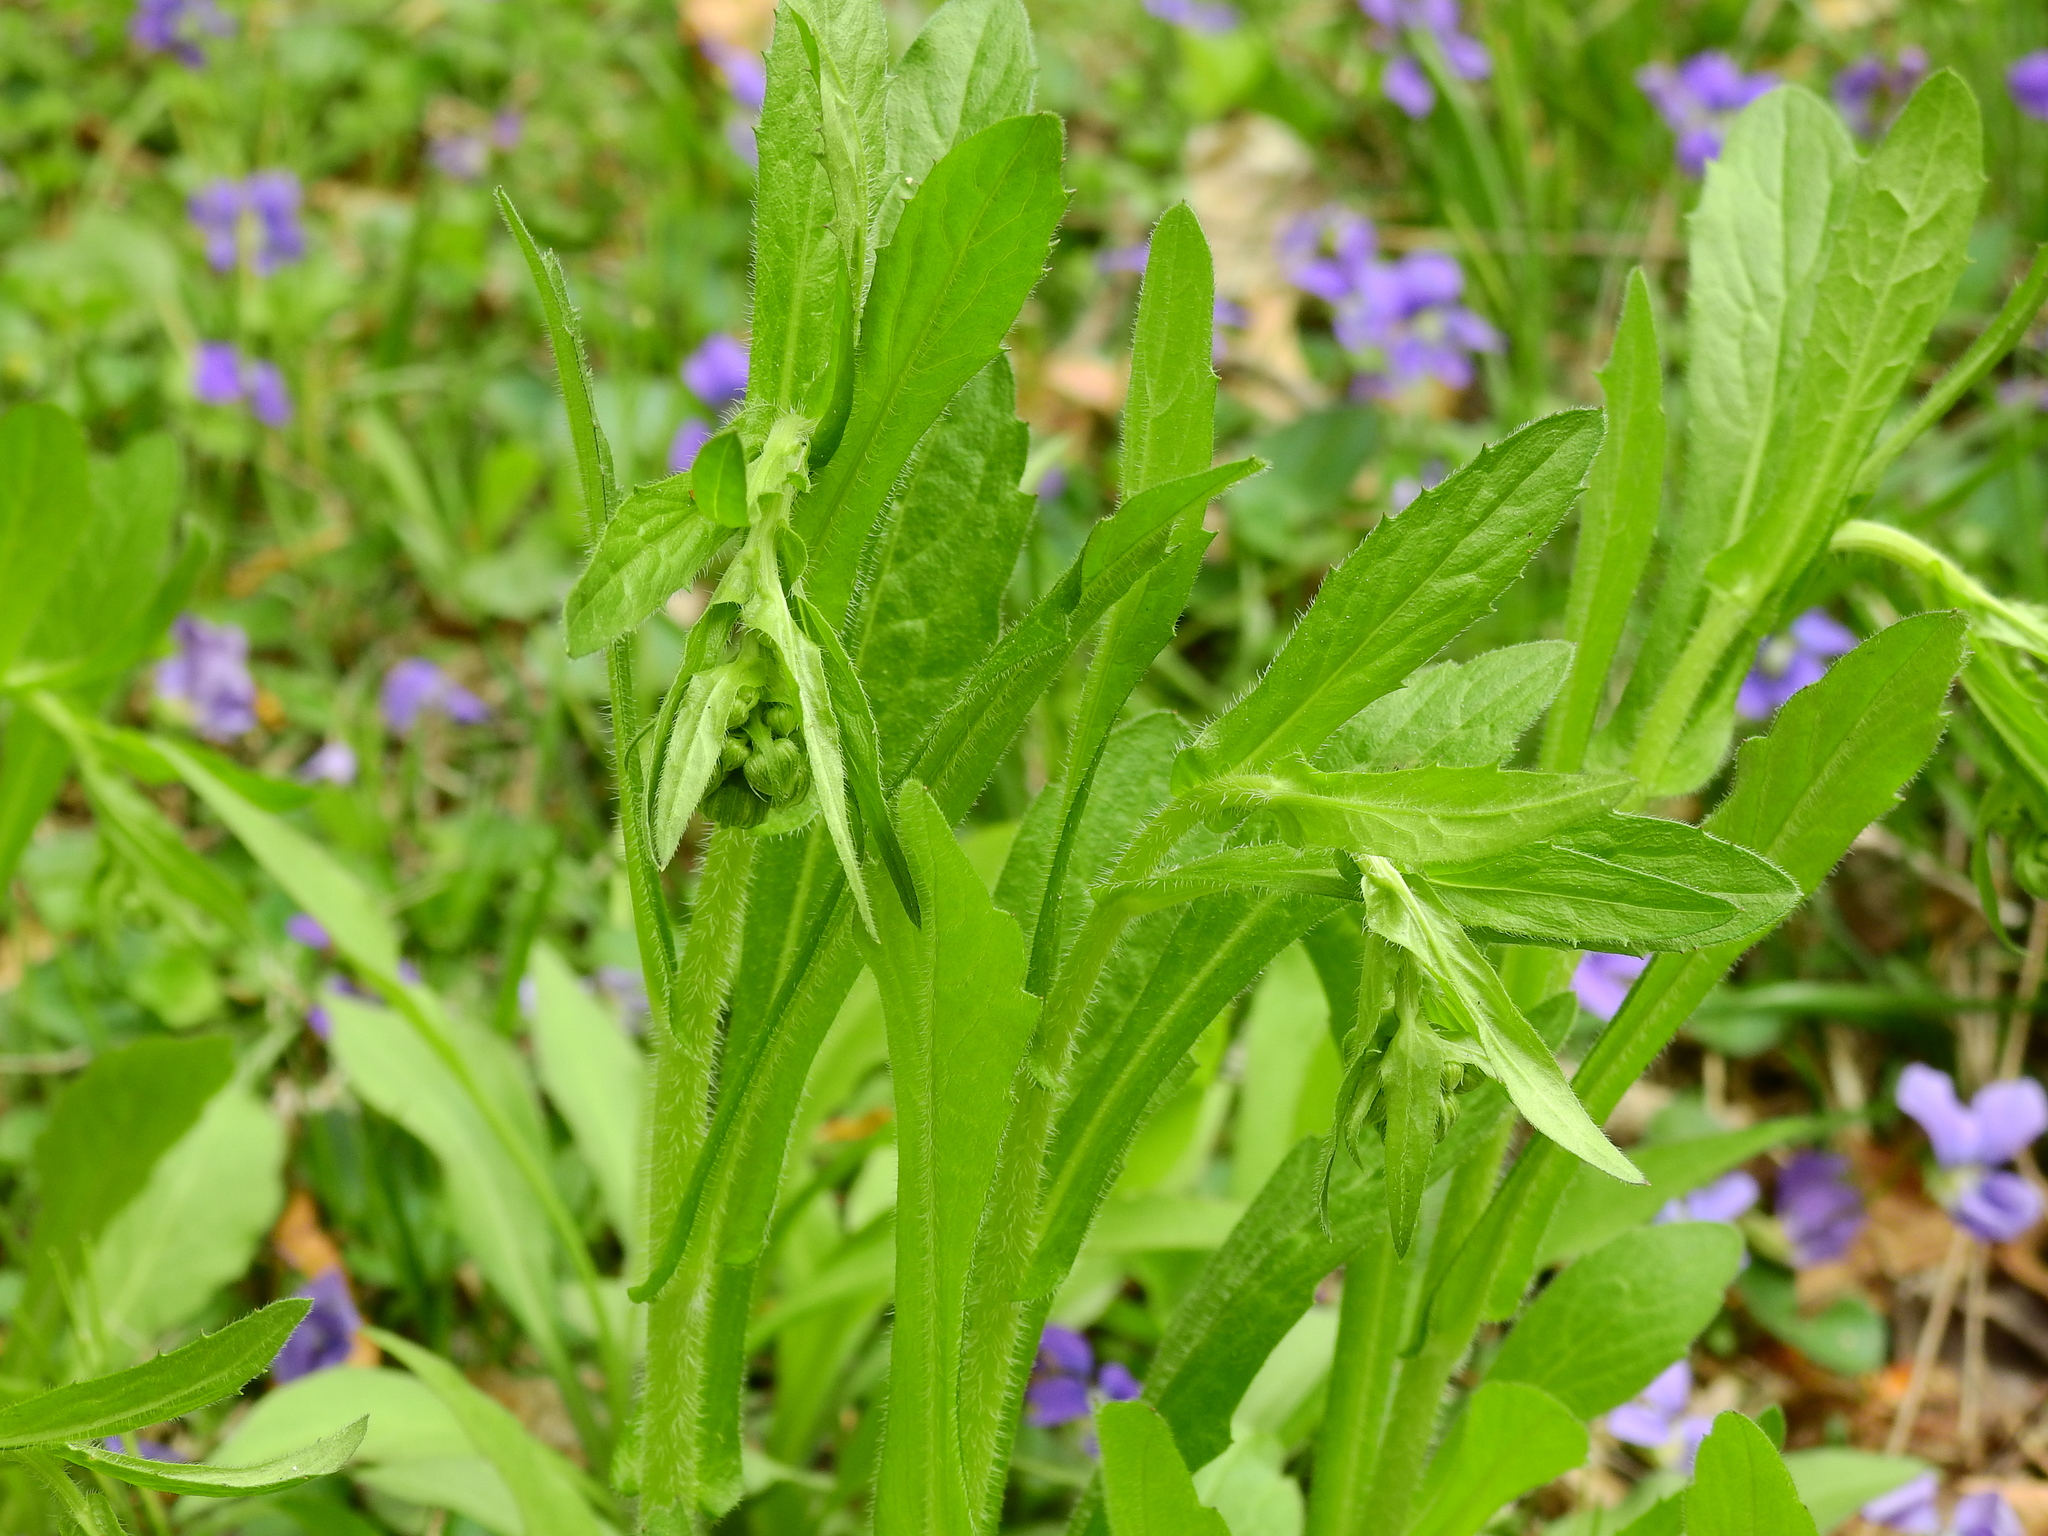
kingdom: Plantae
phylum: Tracheophyta
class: Magnoliopsida
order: Asterales
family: Asteraceae
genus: Erigeron
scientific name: Erigeron philadelphicus
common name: Robin's-plantain
